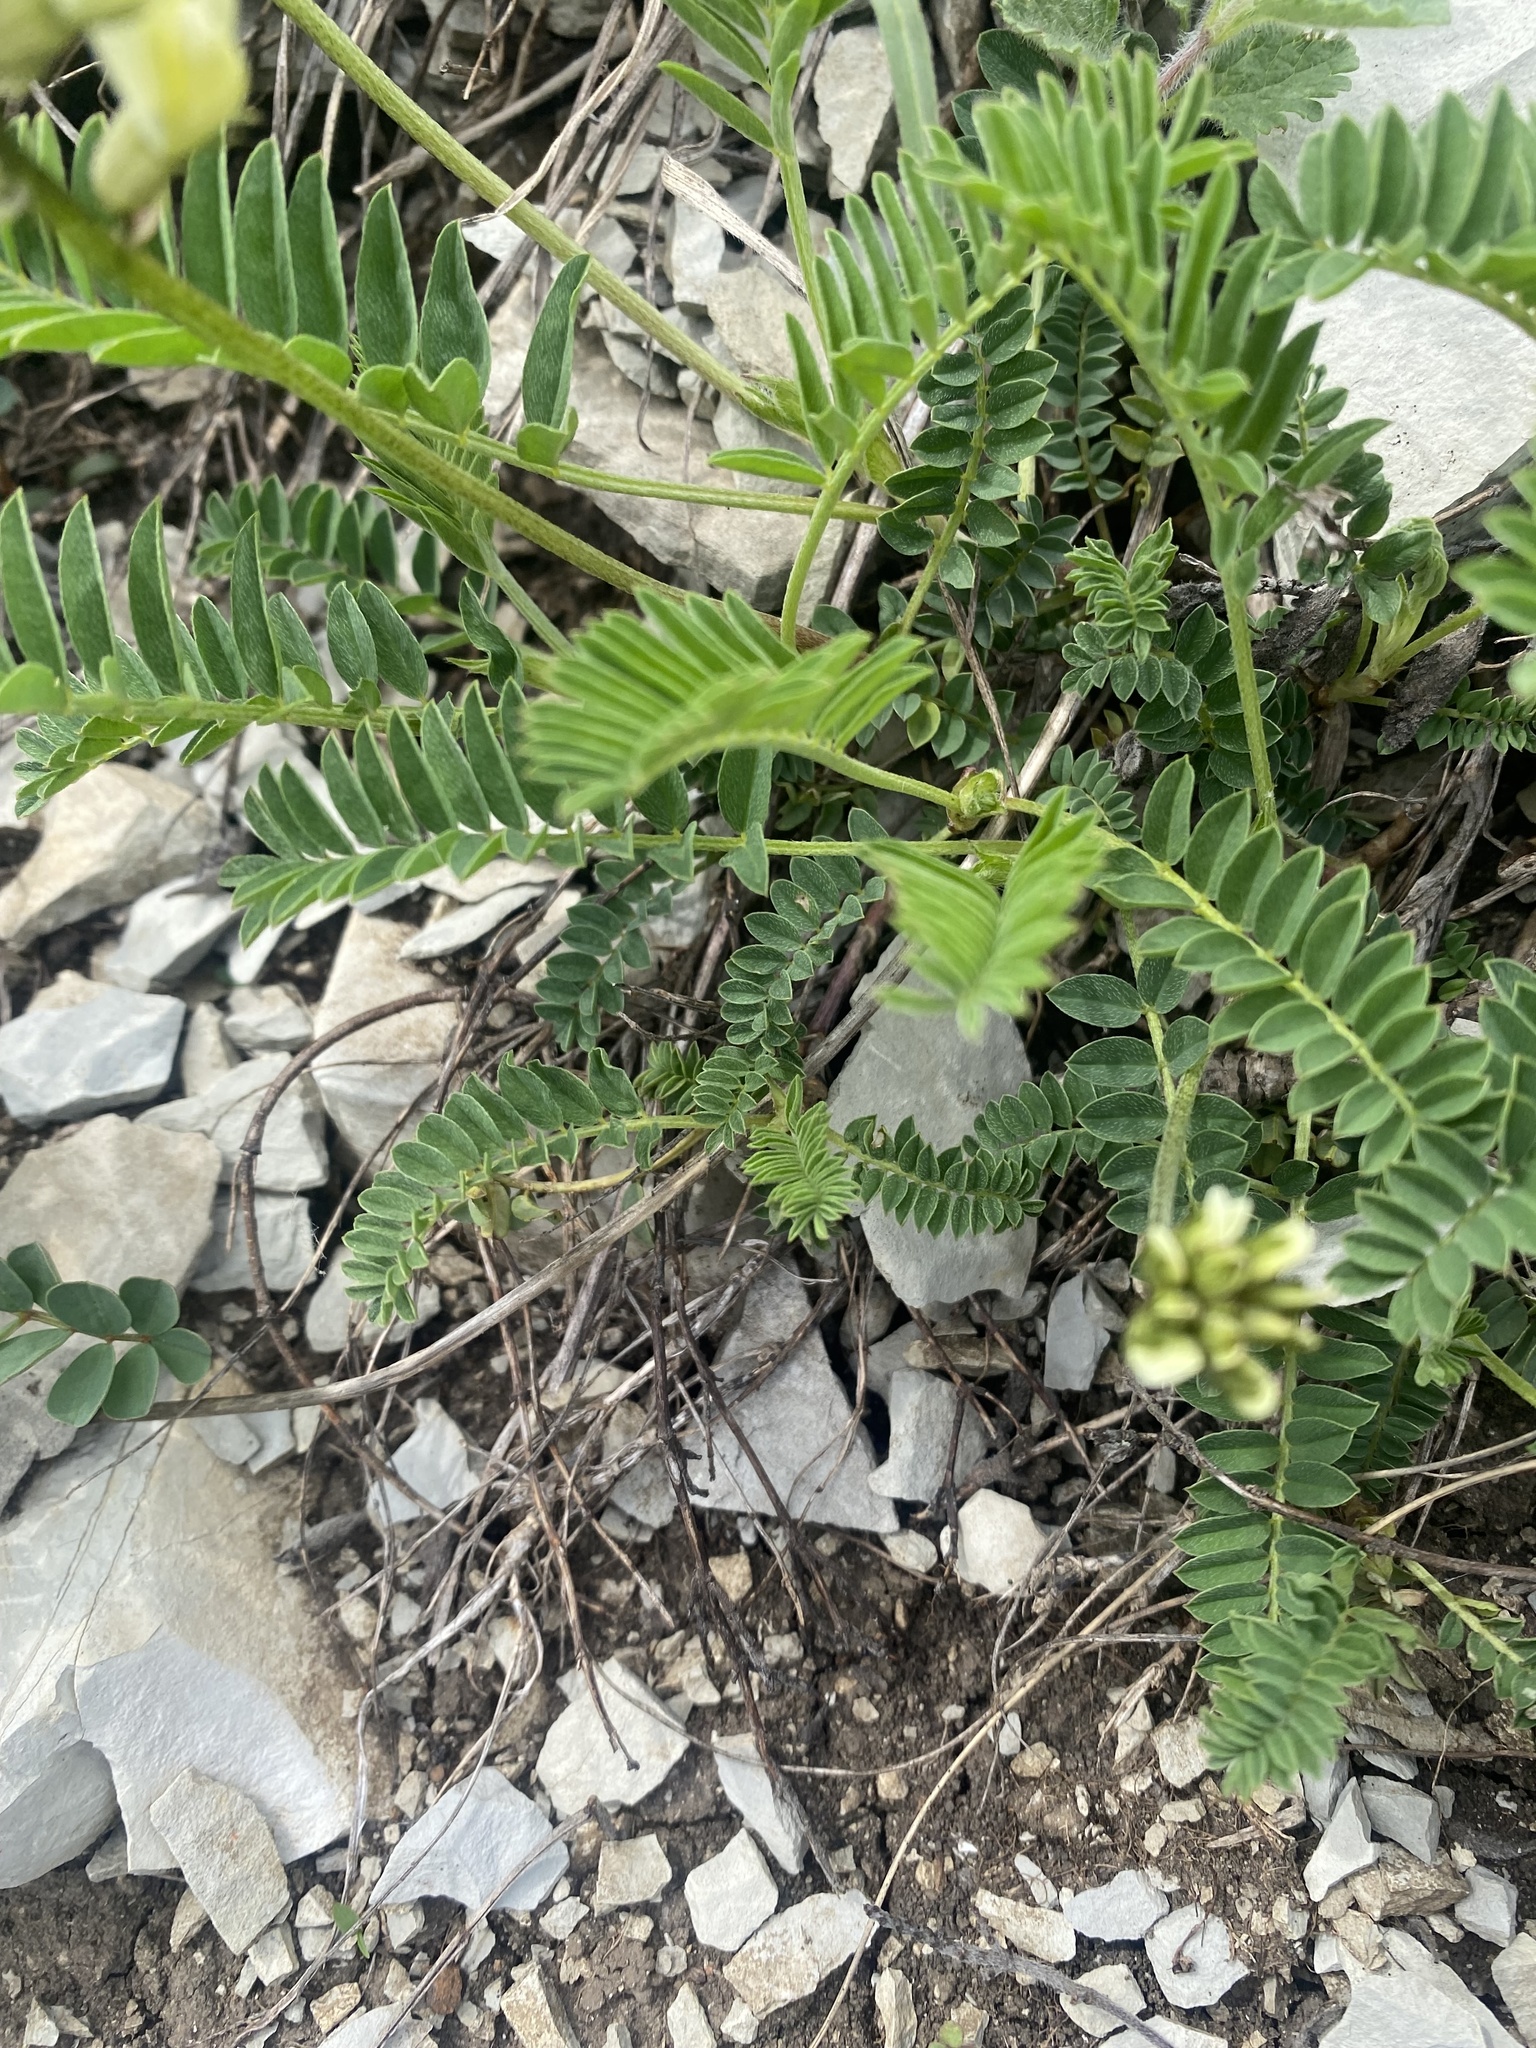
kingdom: Plantae
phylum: Tracheophyta
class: Magnoliopsida
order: Fabales
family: Fabaceae
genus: Astragalus
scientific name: Astragalus fragrans
